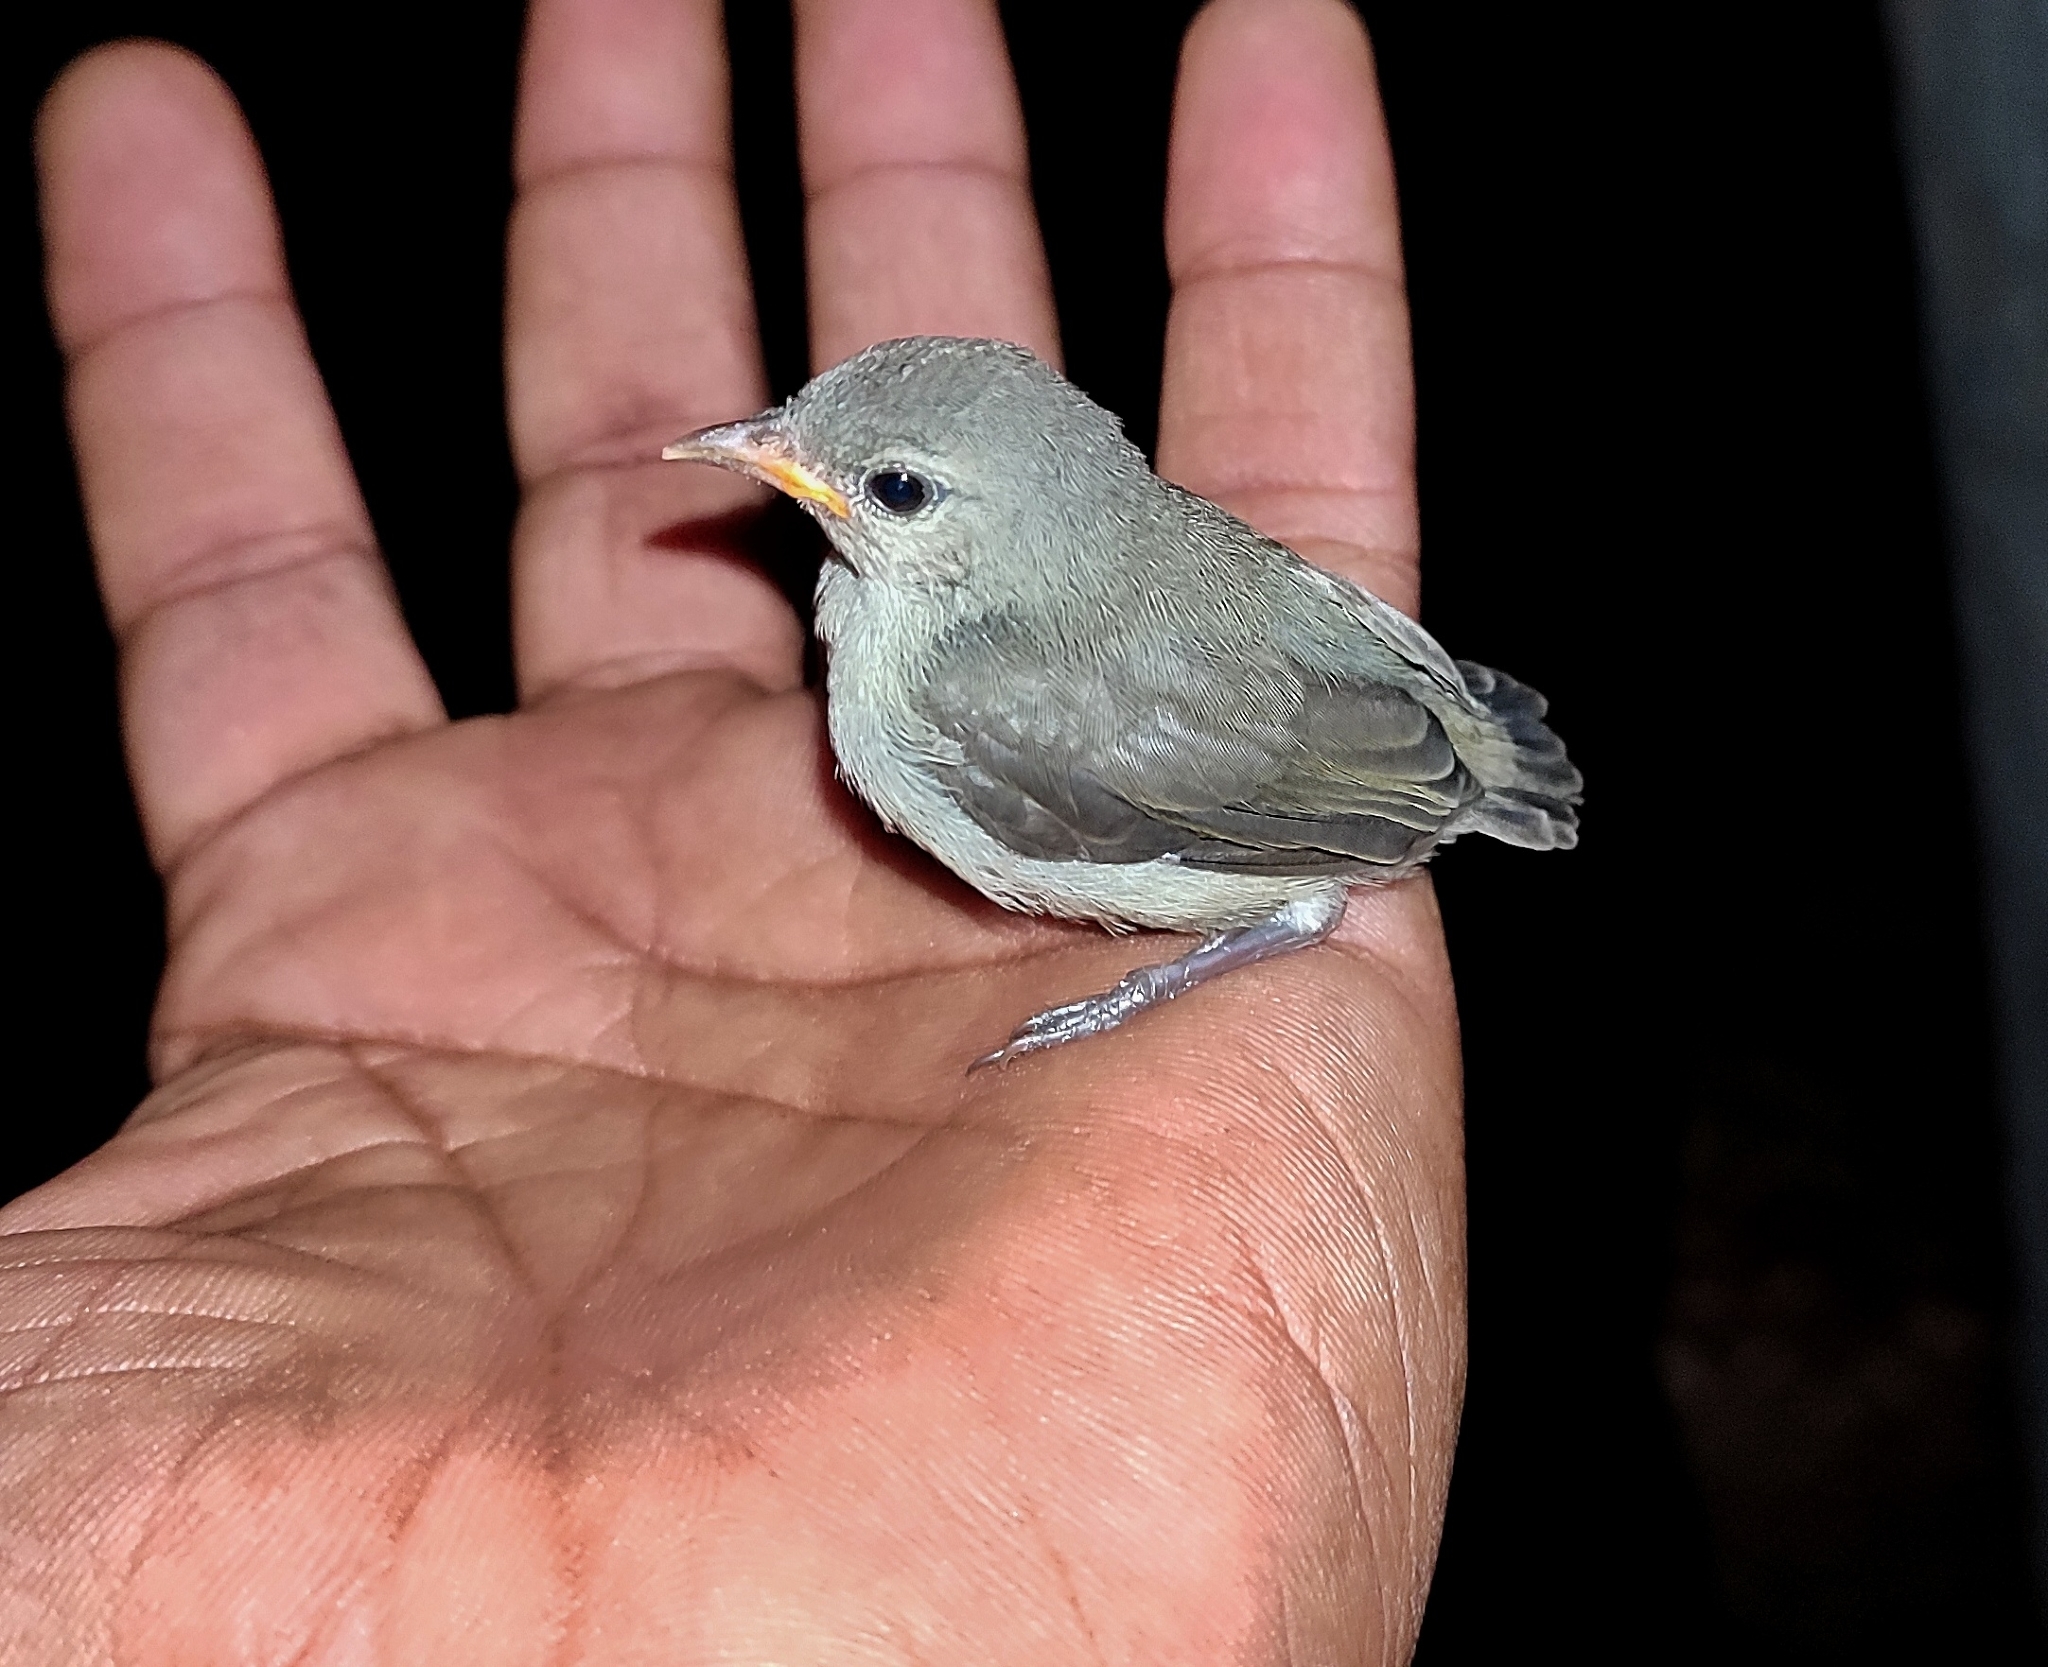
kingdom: Animalia
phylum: Chordata
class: Aves
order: Passeriformes
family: Dicaeidae
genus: Dicaeum
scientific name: Dicaeum erythrorhynchos
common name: Pale-billed flowerpecker
